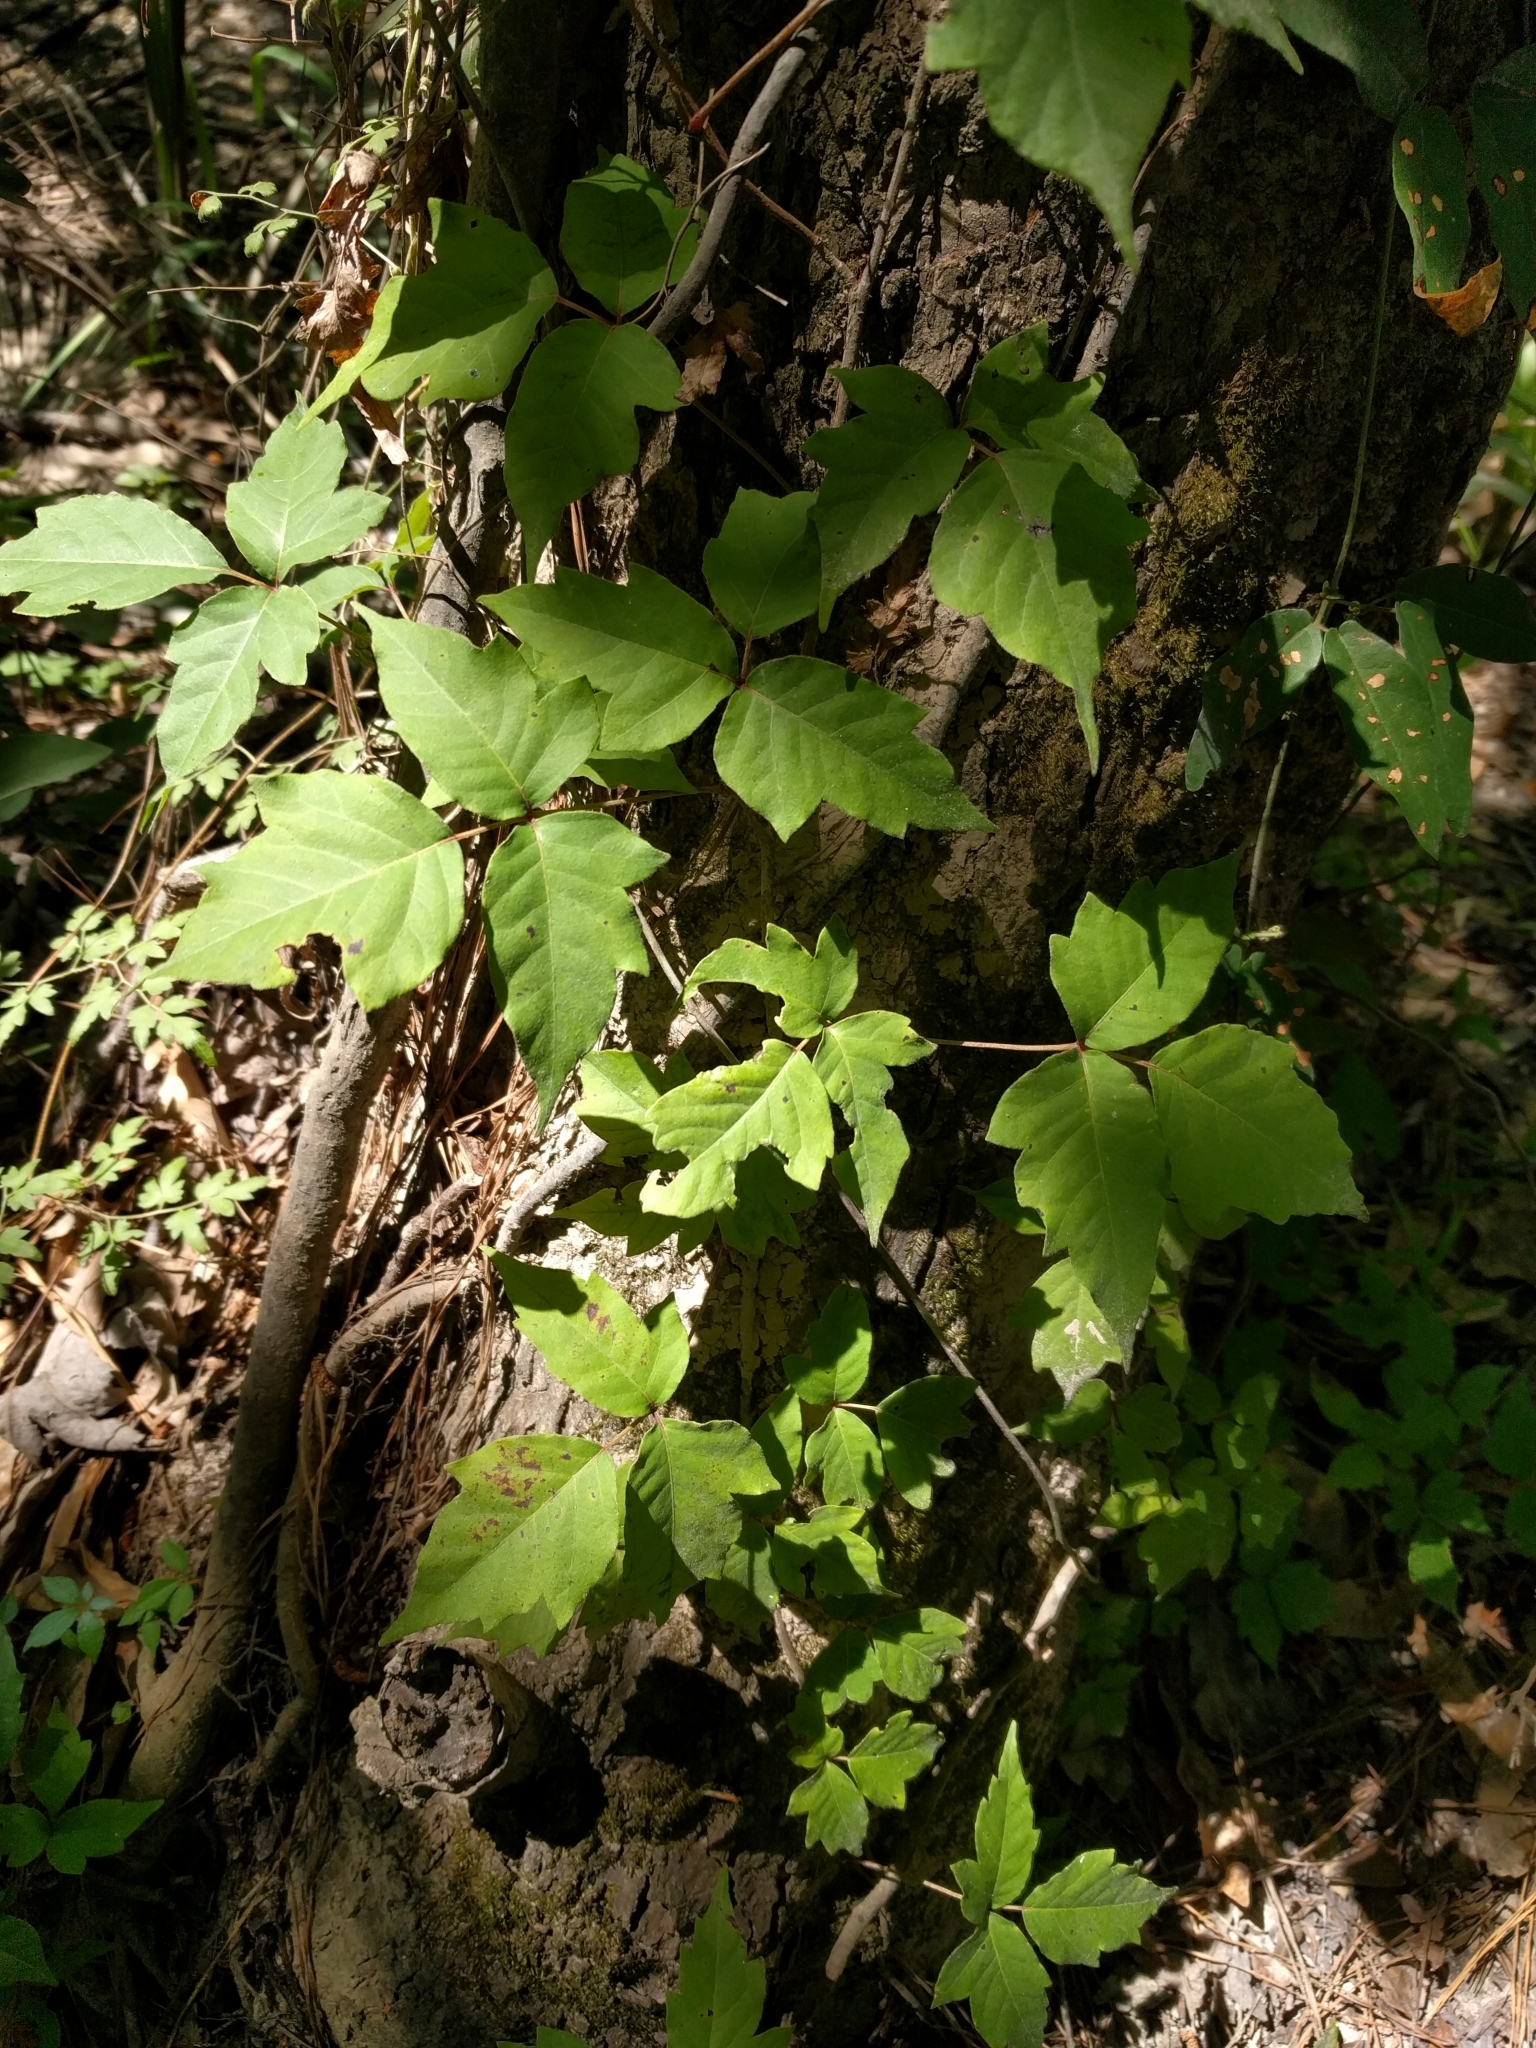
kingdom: Plantae
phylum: Tracheophyta
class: Magnoliopsida
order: Sapindales
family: Anacardiaceae
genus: Toxicodendron
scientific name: Toxicodendron radicans
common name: Poison ivy
